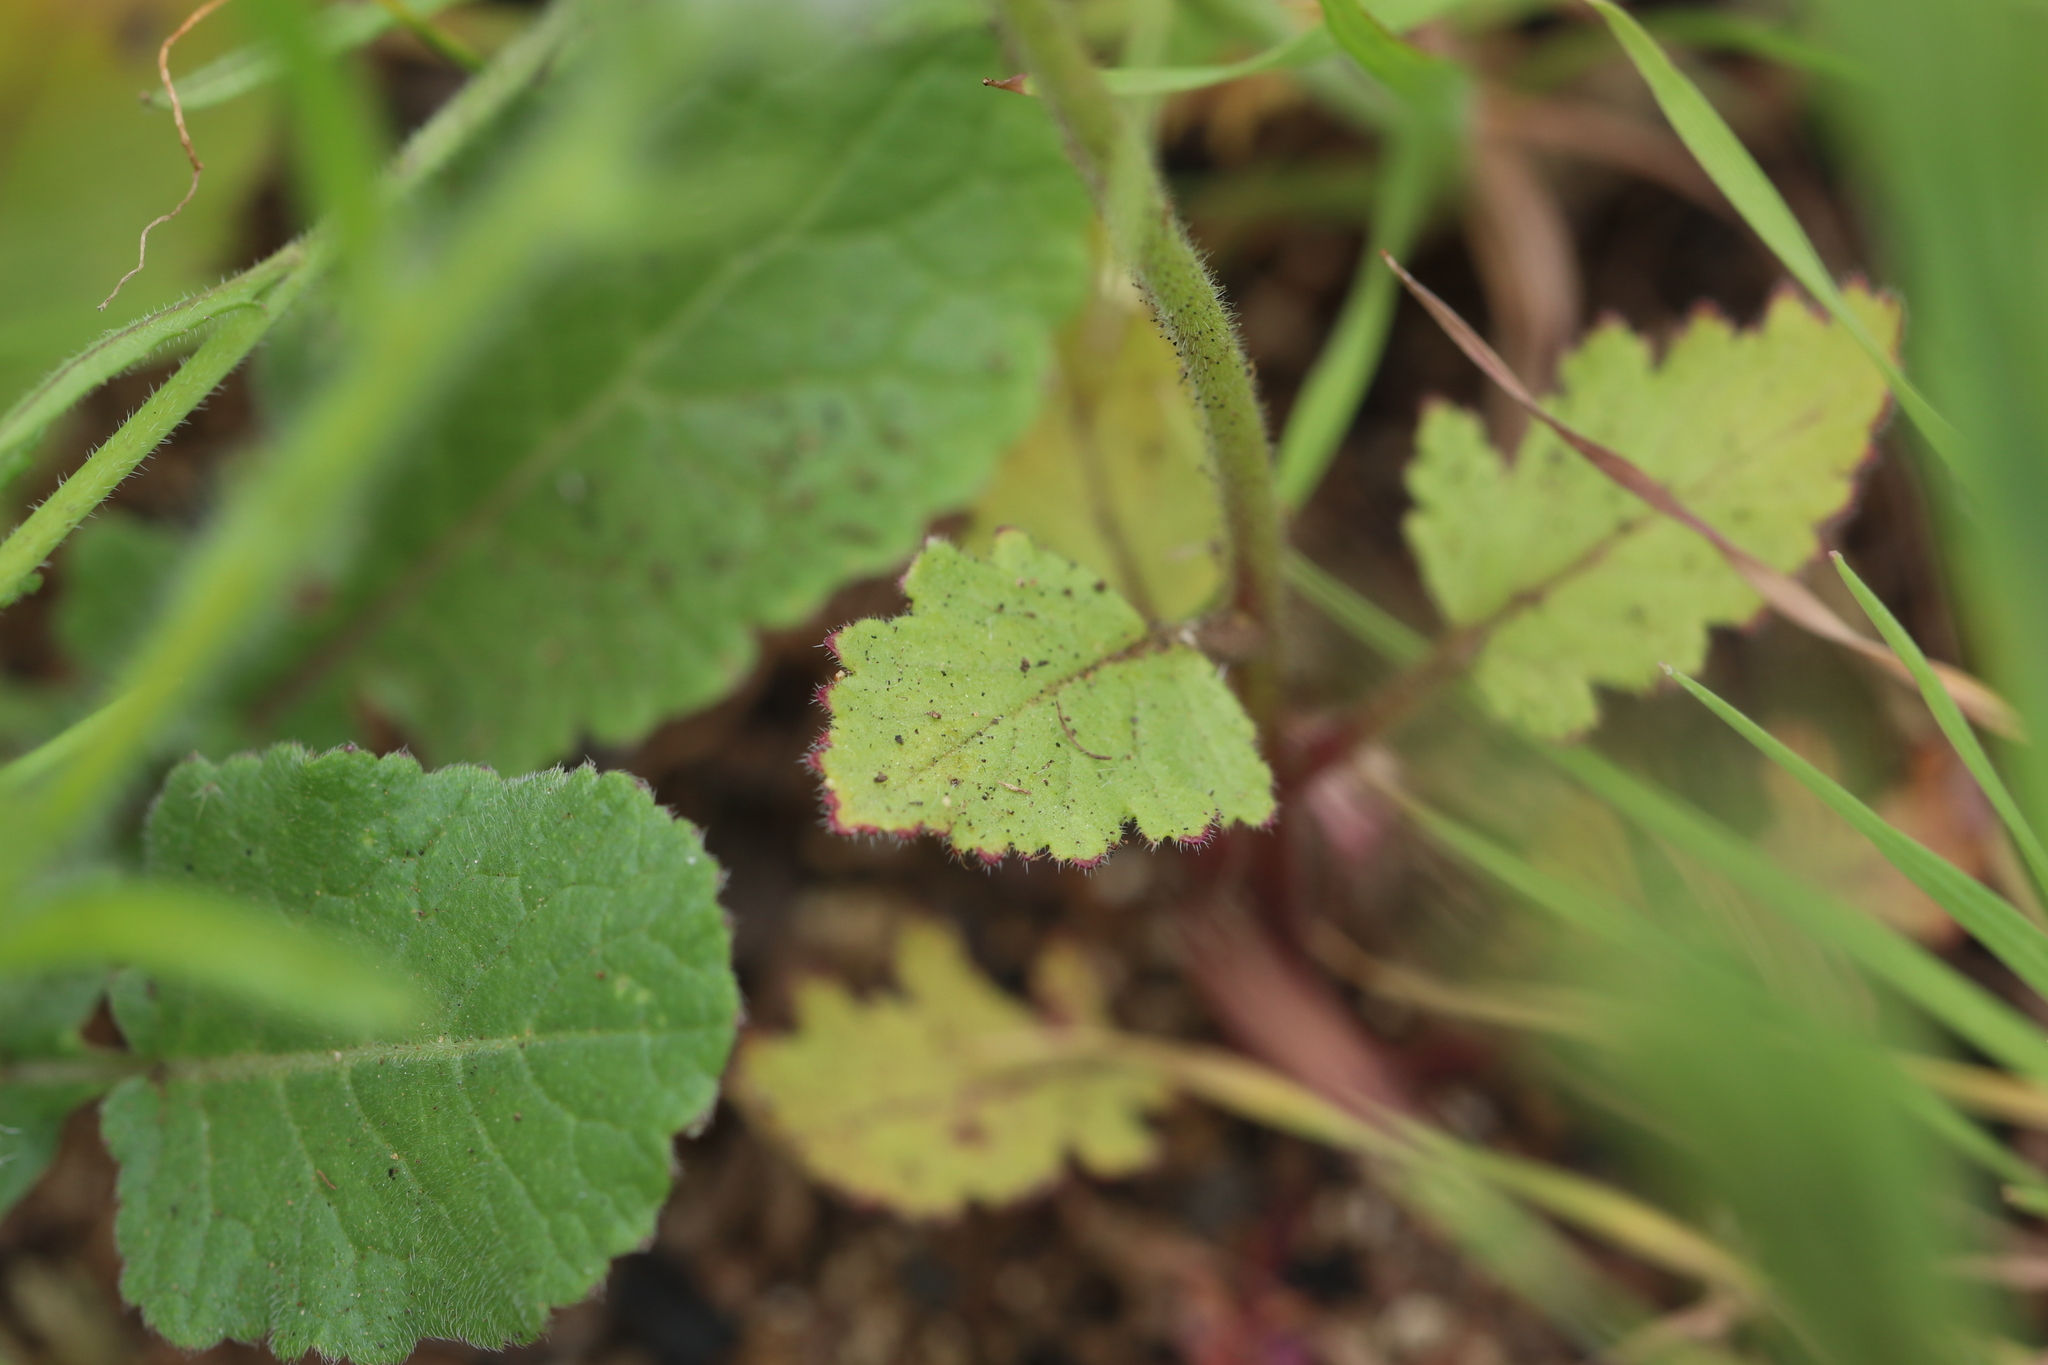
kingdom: Plantae
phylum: Tracheophyta
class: Magnoliopsida
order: Boraginales
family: Hydrophyllaceae
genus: Phacelia
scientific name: Phacelia viscida
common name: Sticky phacelia
